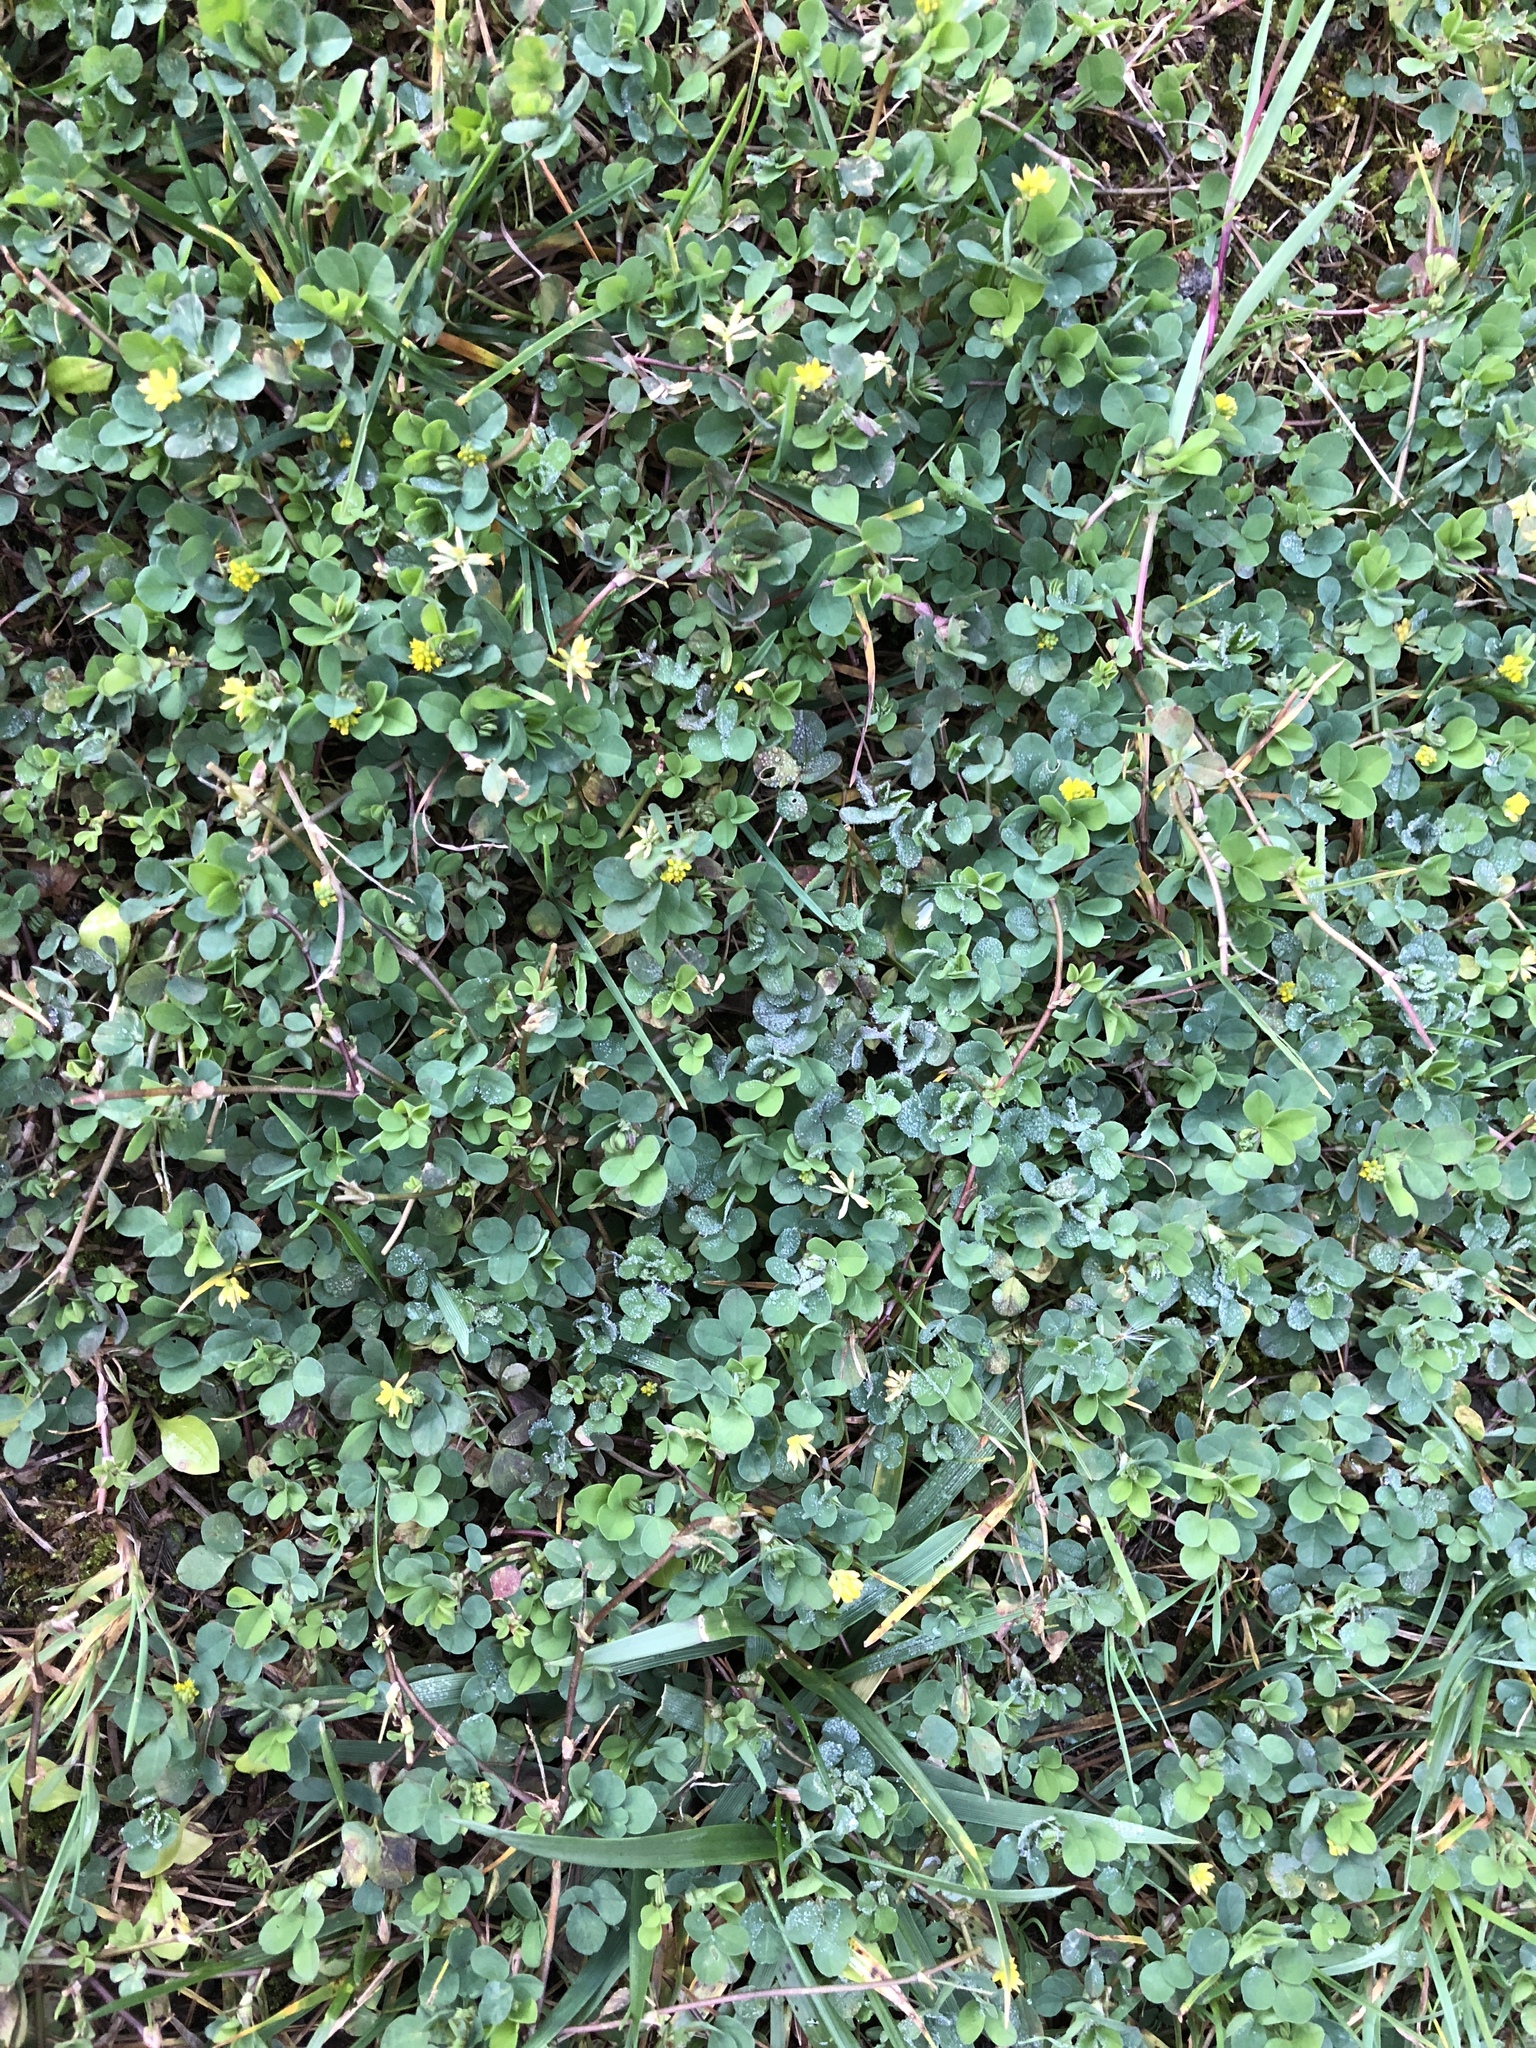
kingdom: Plantae
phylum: Tracheophyta
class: Magnoliopsida
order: Fabales
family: Fabaceae
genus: Trifolium
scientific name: Trifolium dubium
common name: Suckling clover
